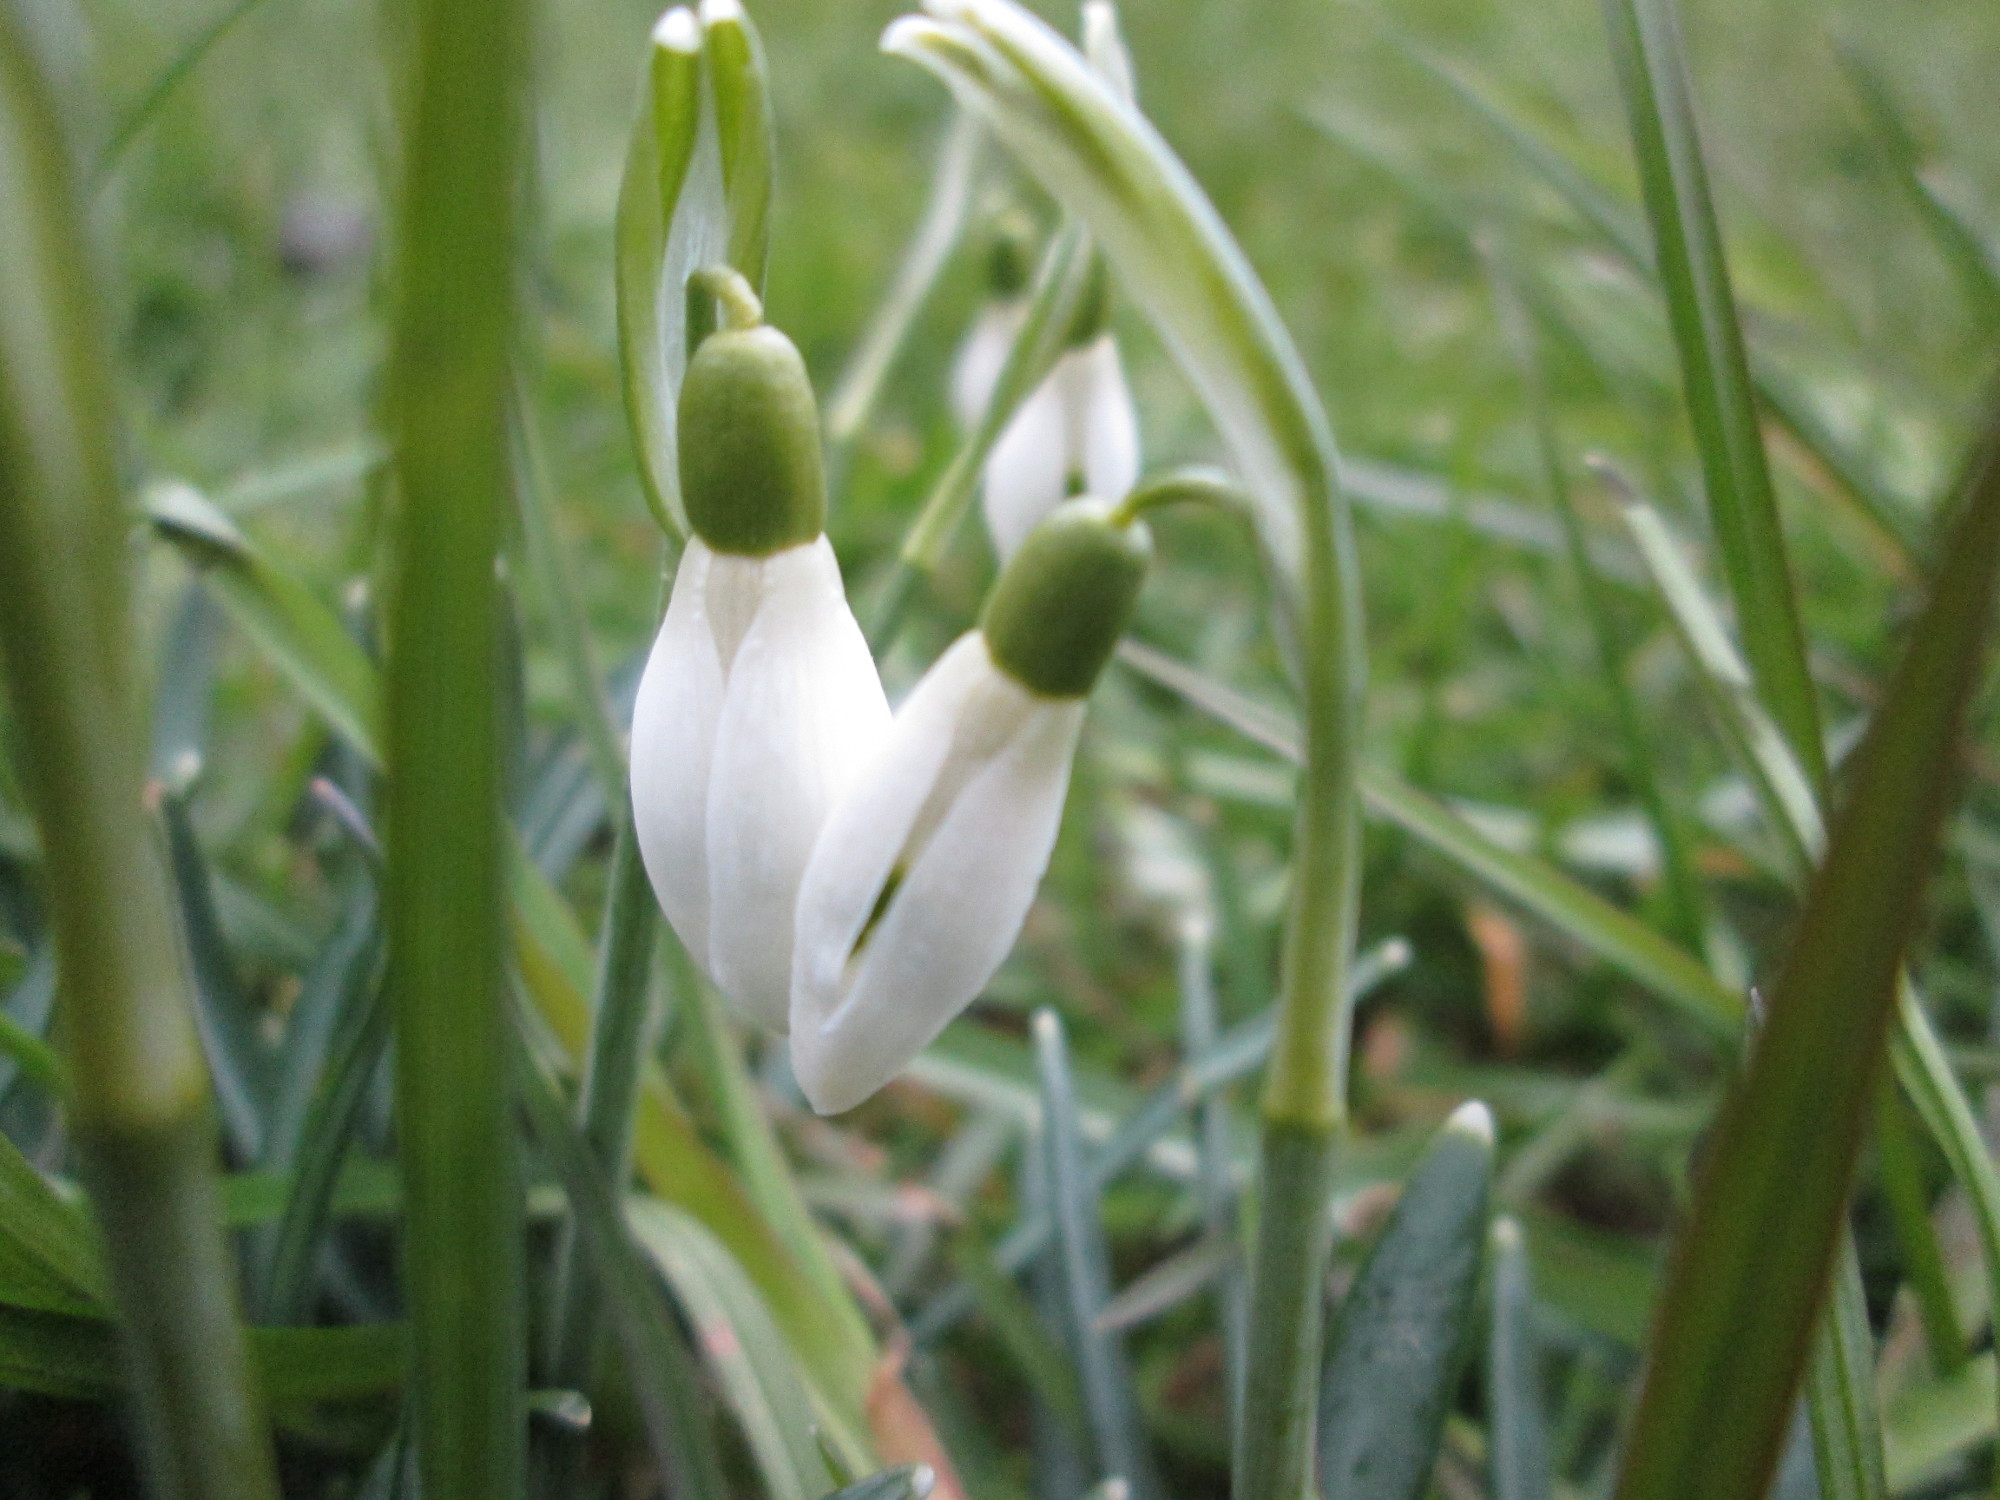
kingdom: Plantae
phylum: Tracheophyta
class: Liliopsida
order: Asparagales
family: Amaryllidaceae
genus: Galanthus
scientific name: Galanthus nivalis
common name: Snowdrop
